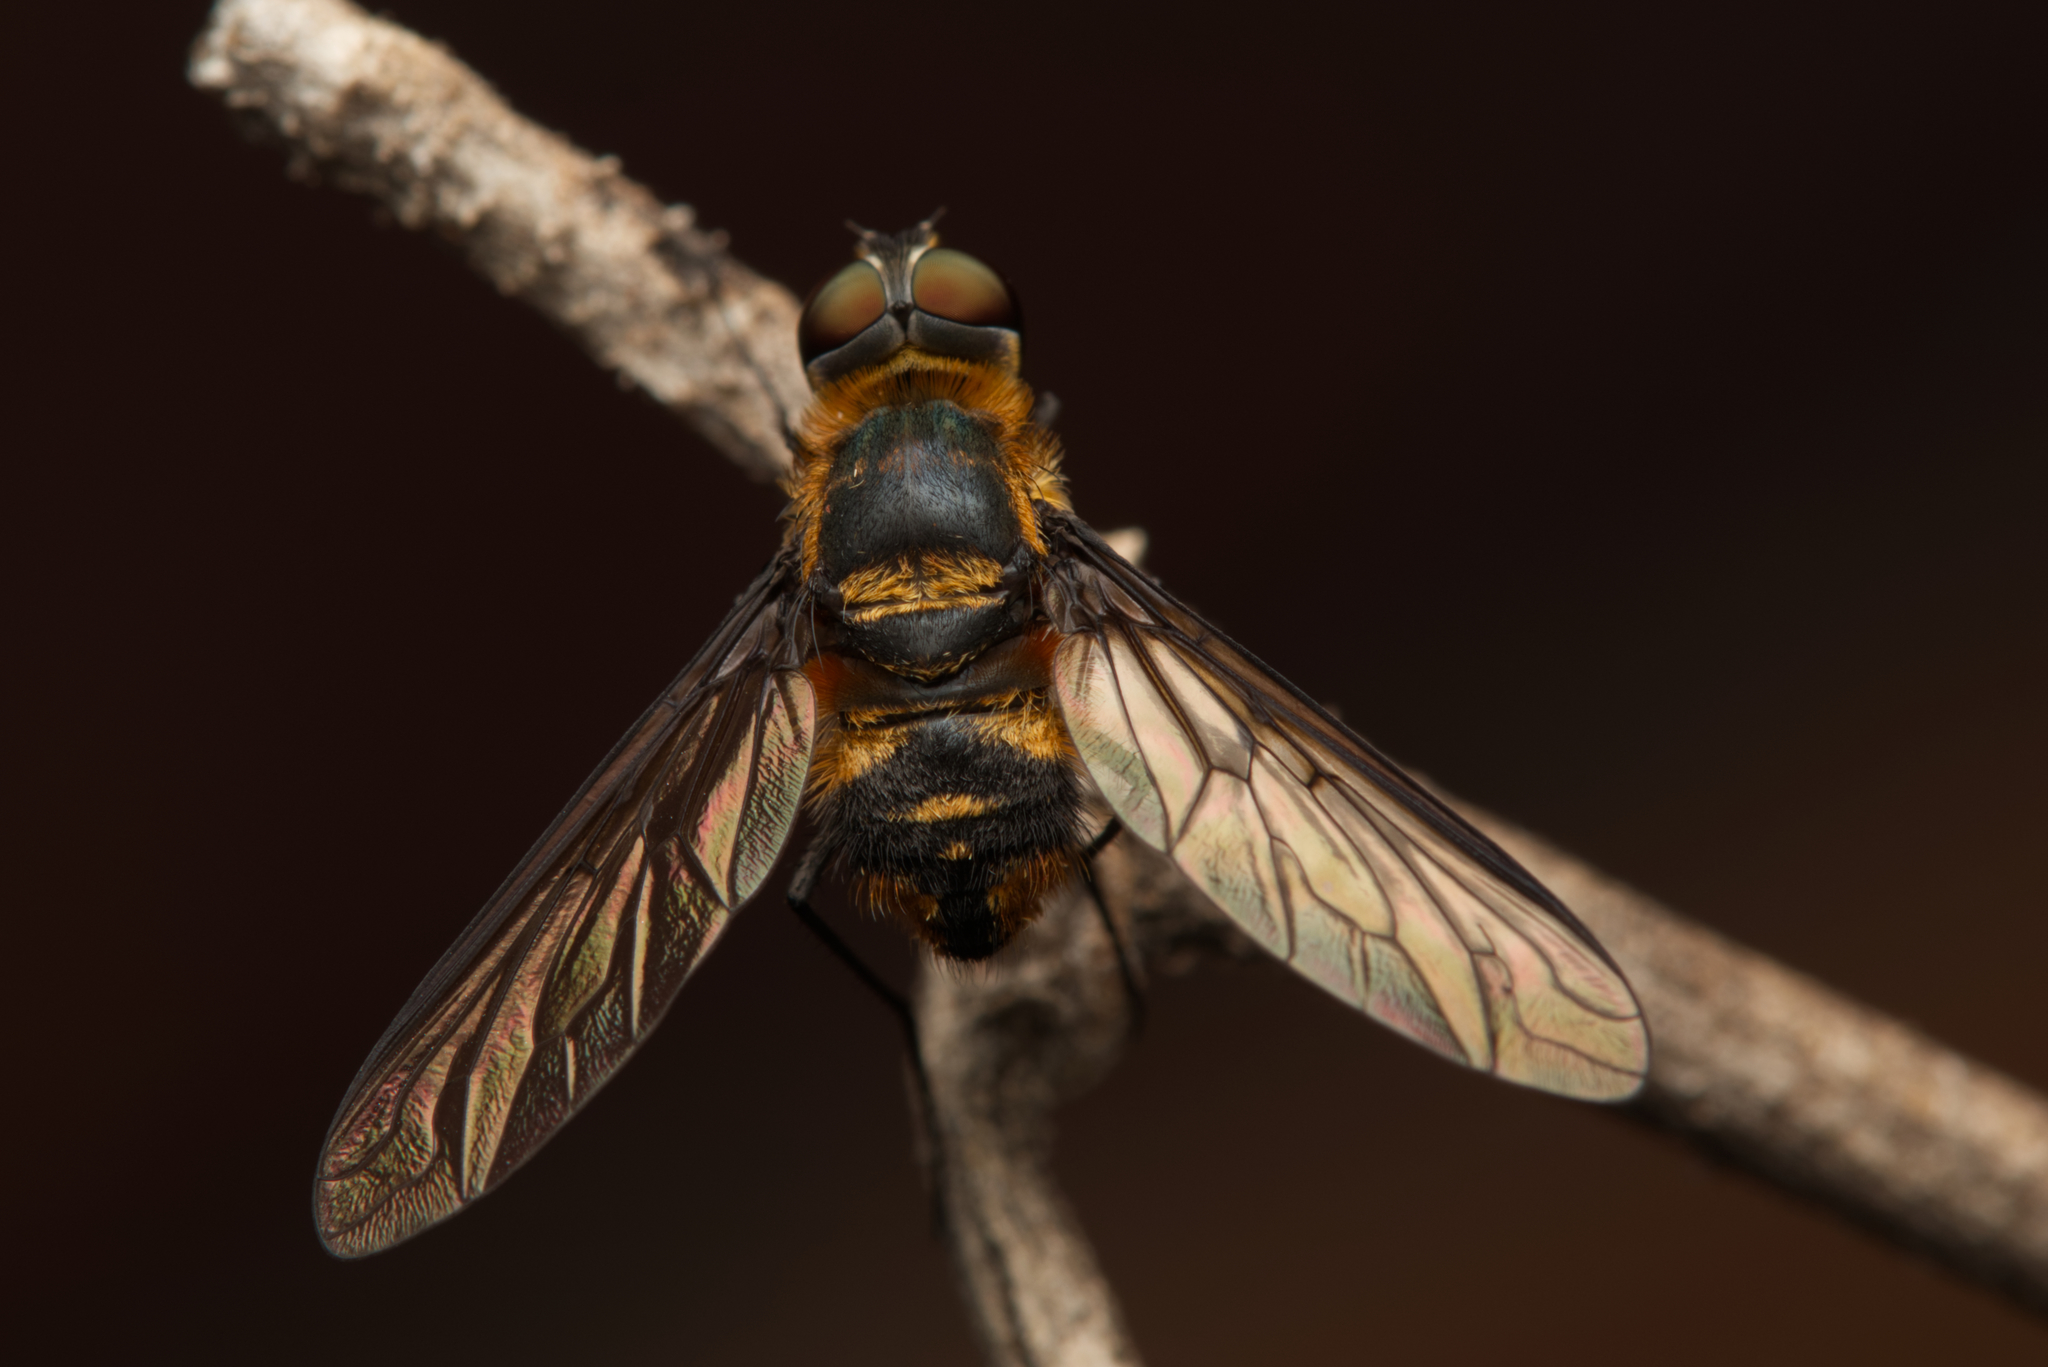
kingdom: Animalia
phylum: Arthropoda
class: Insecta
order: Diptera
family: Bombyliidae
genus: Thraxan
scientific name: Thraxan luteus
